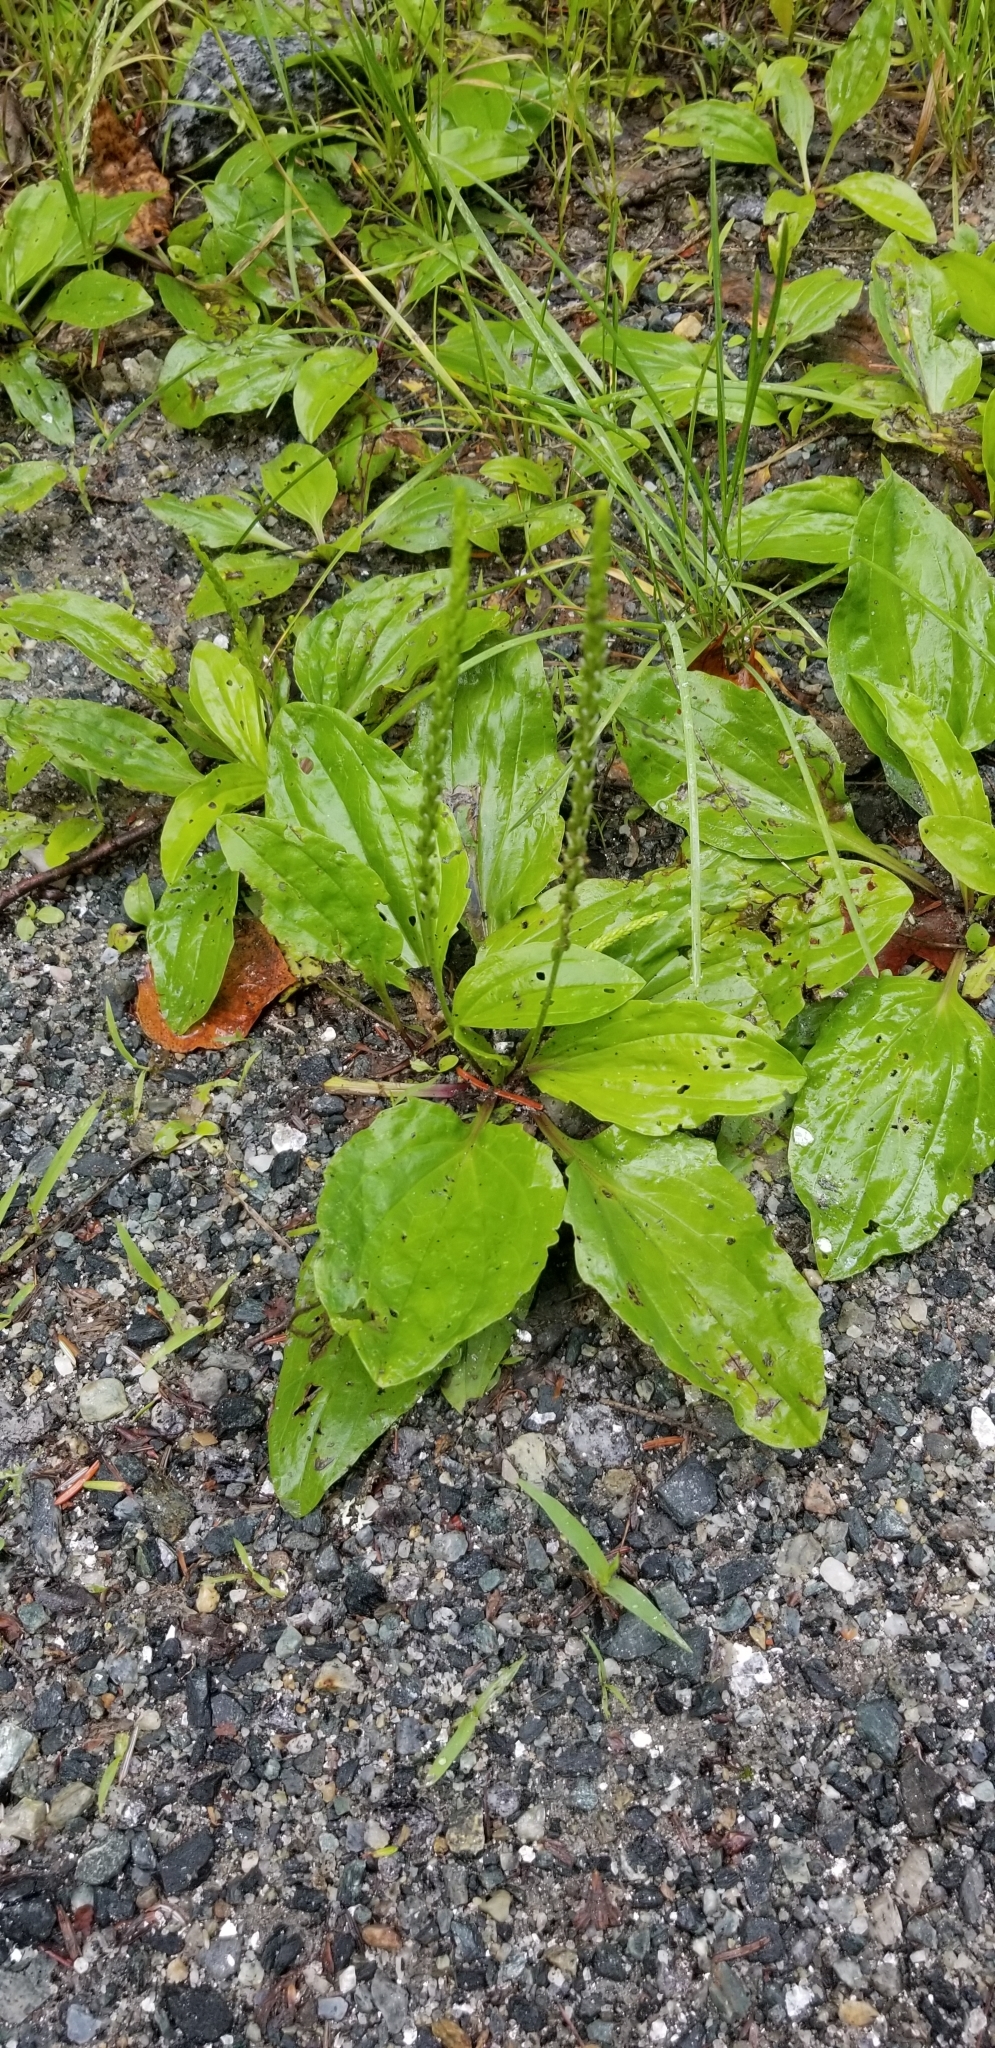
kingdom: Plantae
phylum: Tracheophyta
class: Magnoliopsida
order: Lamiales
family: Plantaginaceae
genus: Plantago
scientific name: Plantago rugelii
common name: American plantain
